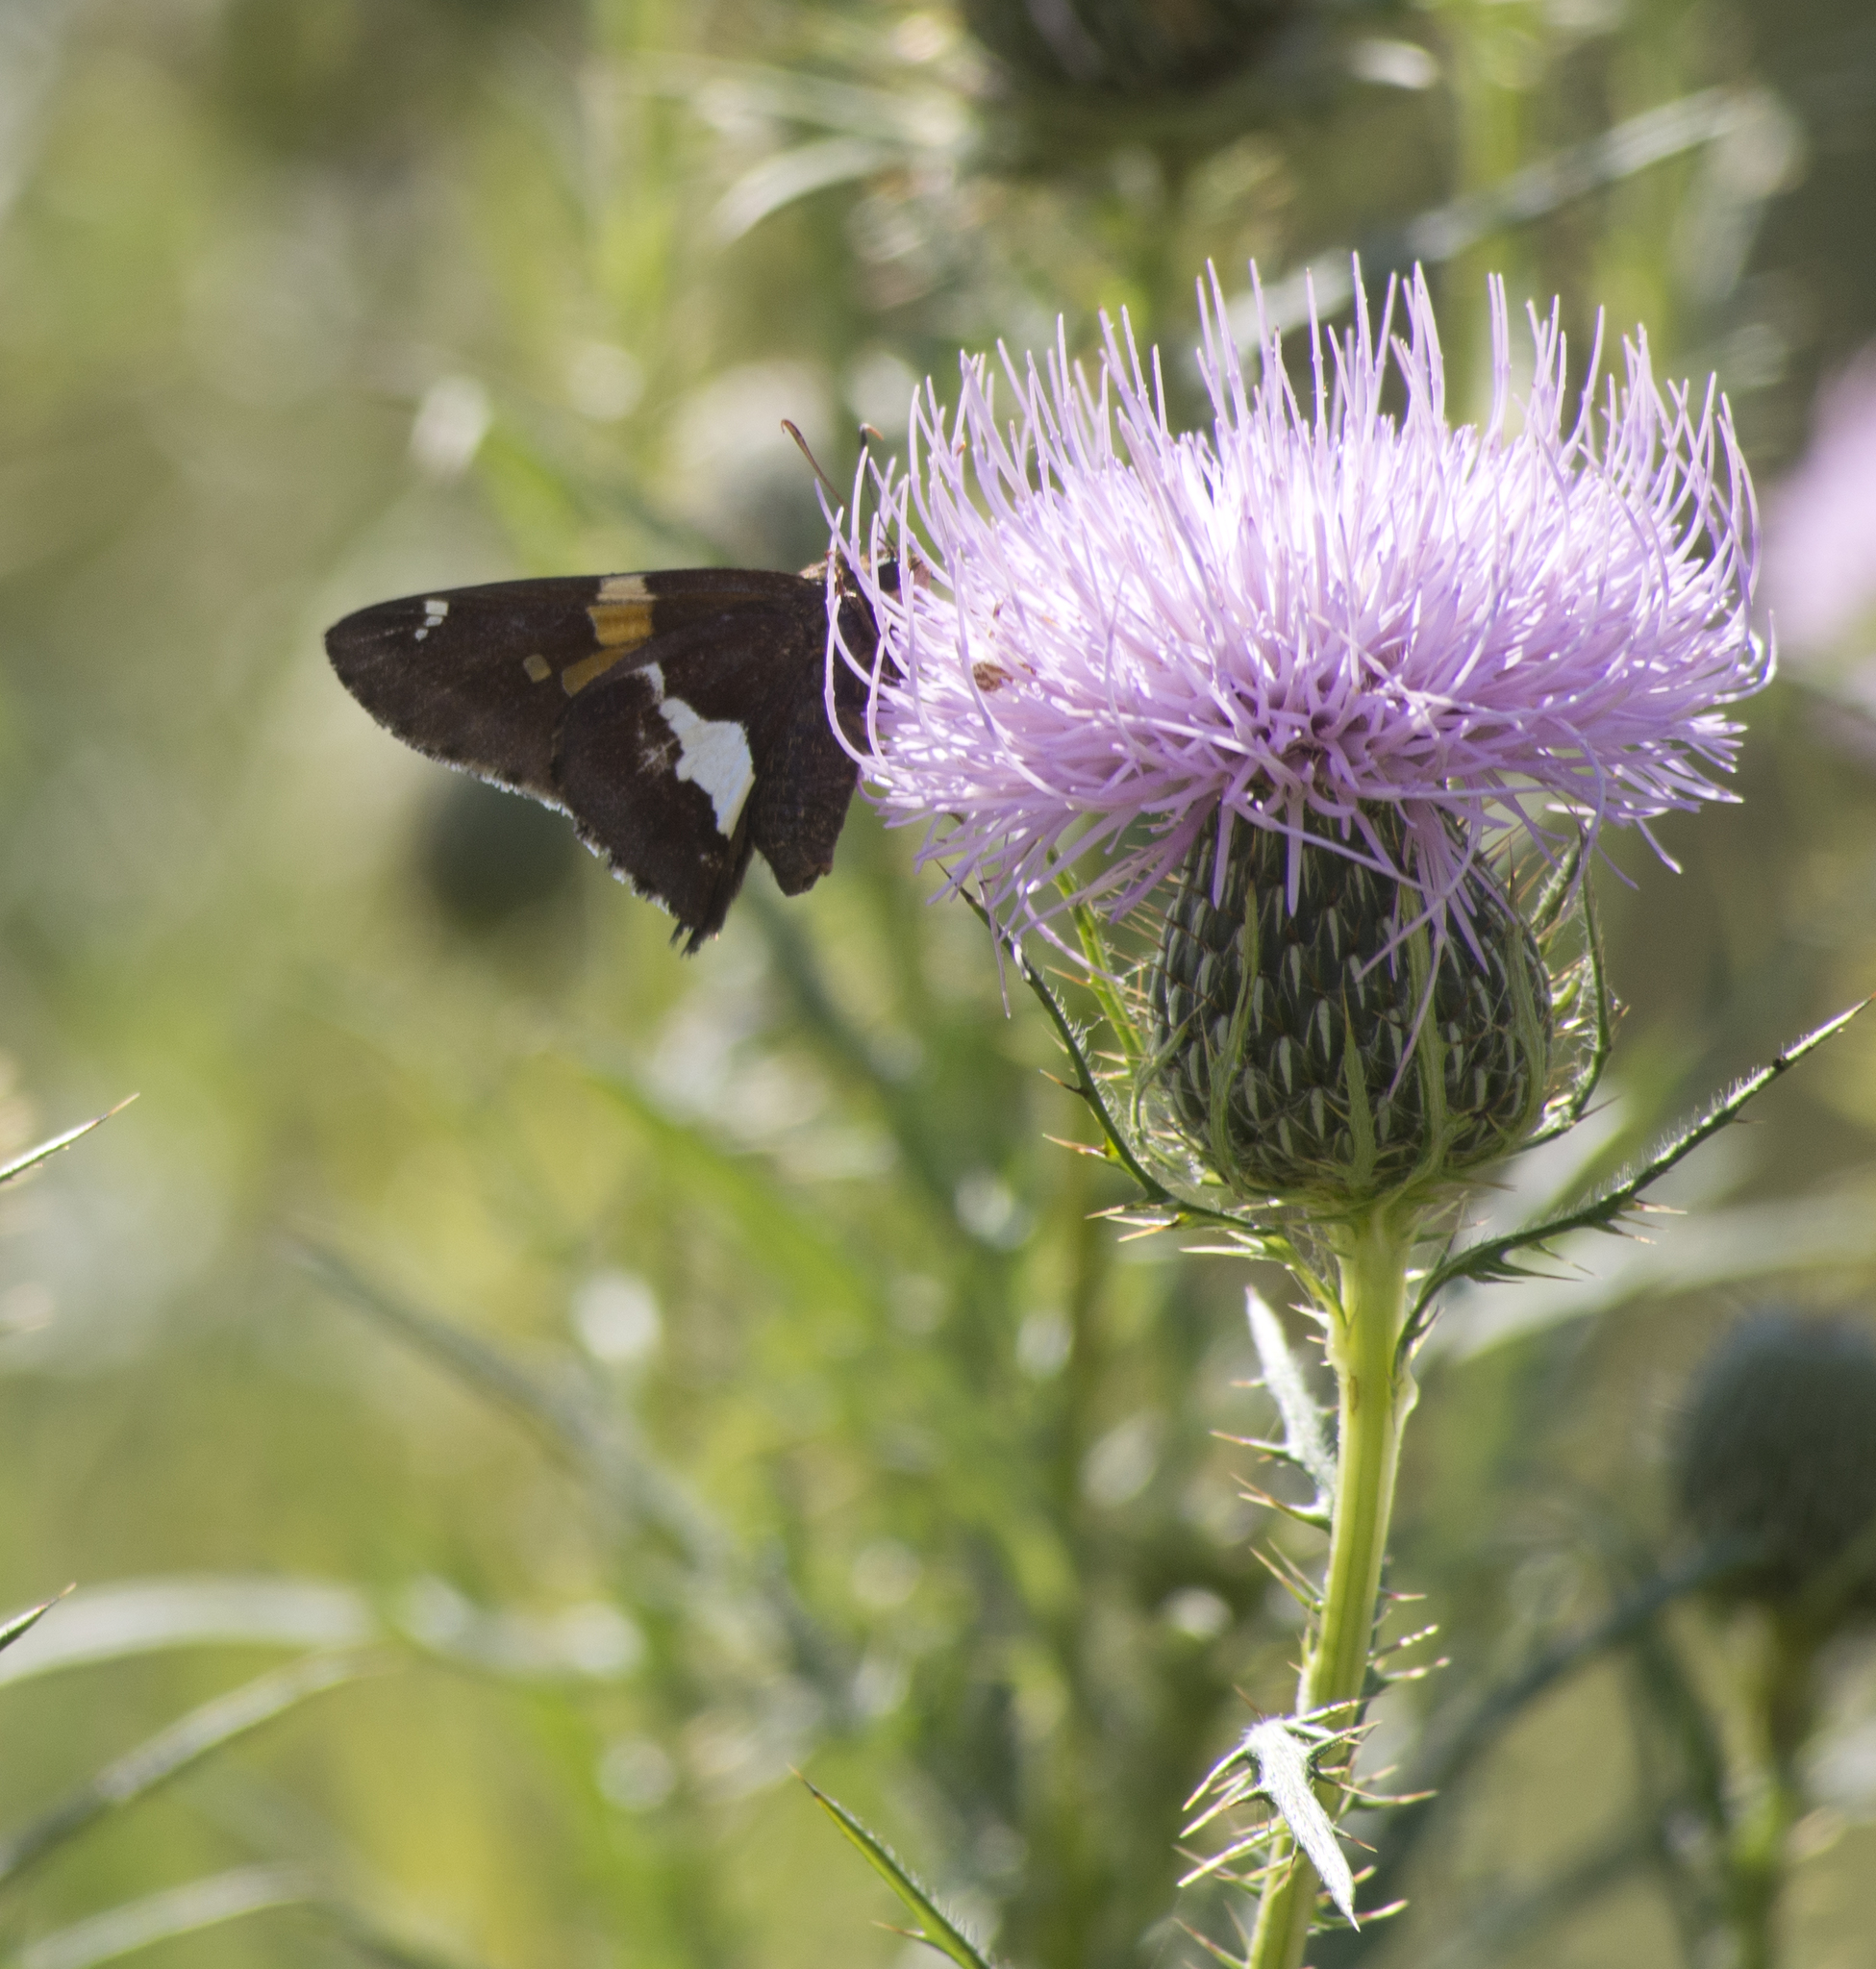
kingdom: Animalia
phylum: Arthropoda
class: Insecta
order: Lepidoptera
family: Hesperiidae
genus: Epargyreus
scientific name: Epargyreus clarus
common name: Silver-spotted skipper
